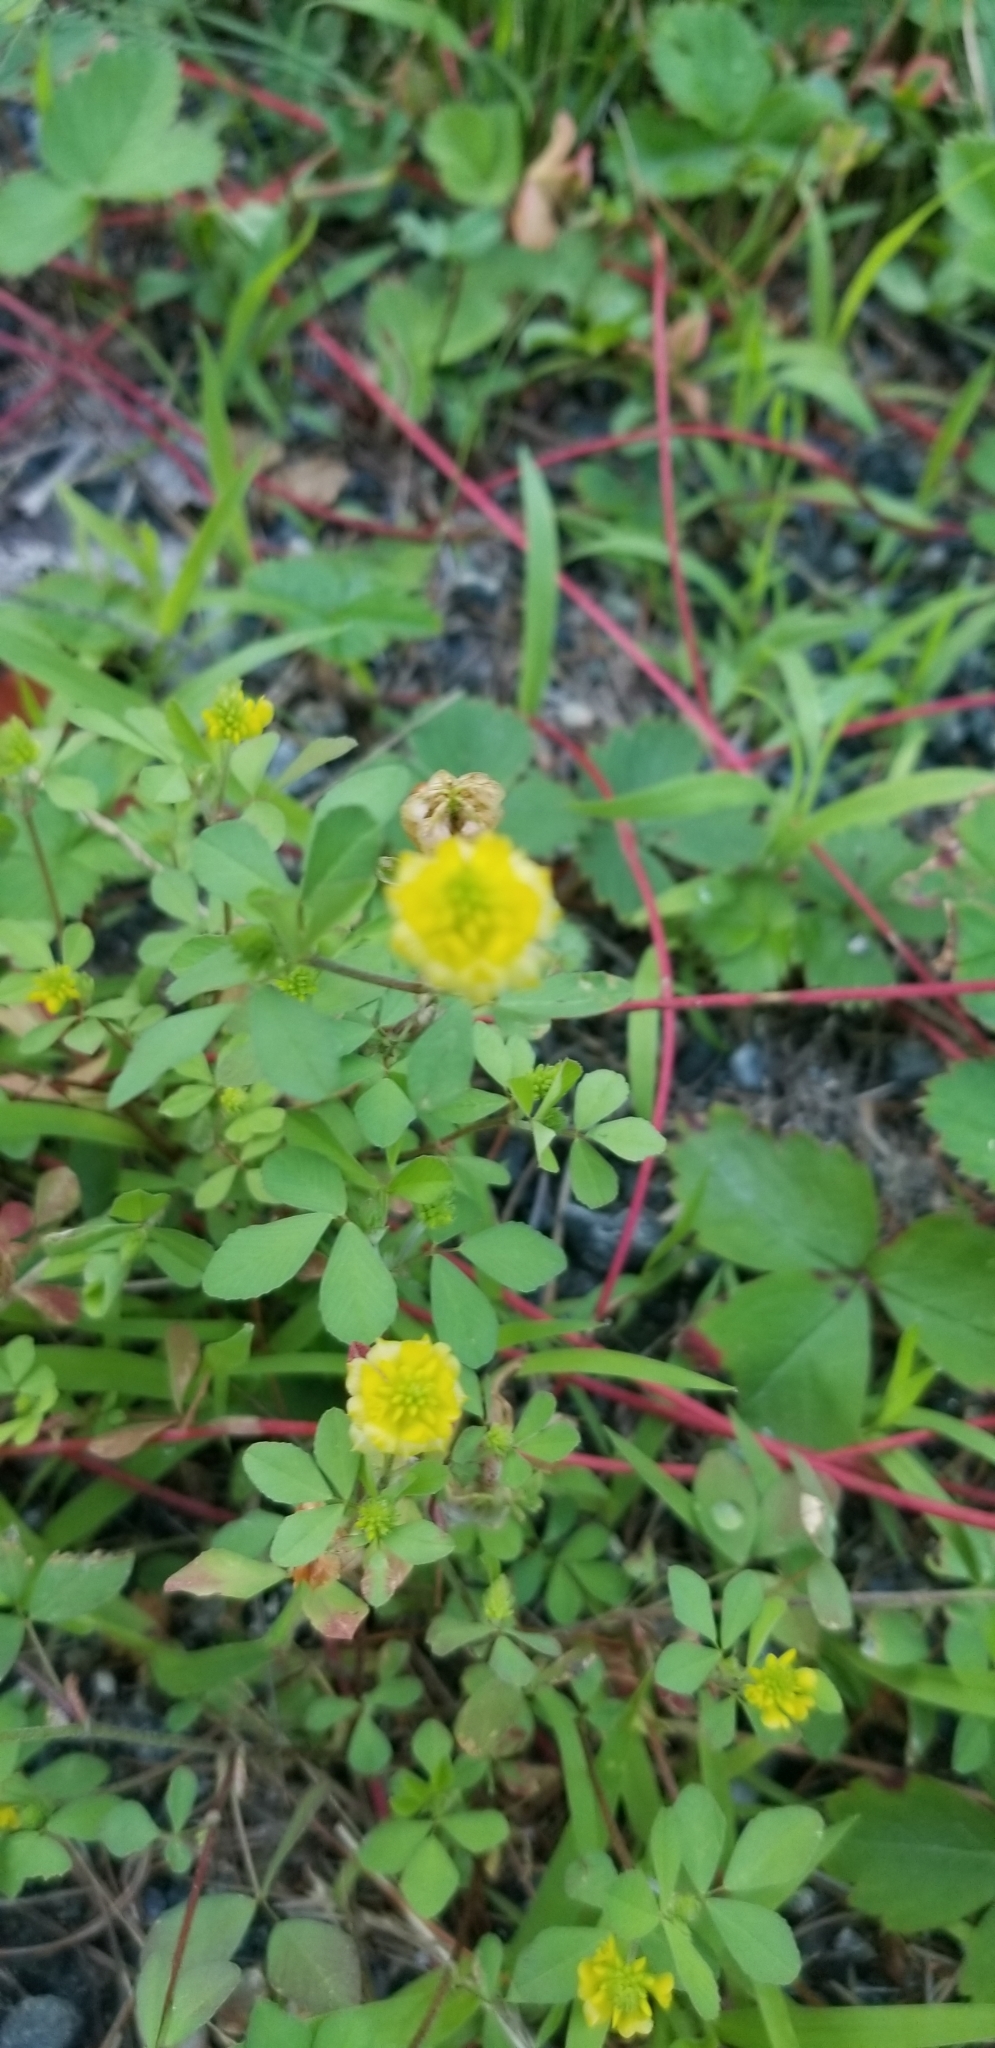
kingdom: Plantae
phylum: Tracheophyta
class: Magnoliopsida
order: Fabales
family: Fabaceae
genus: Trifolium
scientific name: Trifolium aureum
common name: Golden clover
